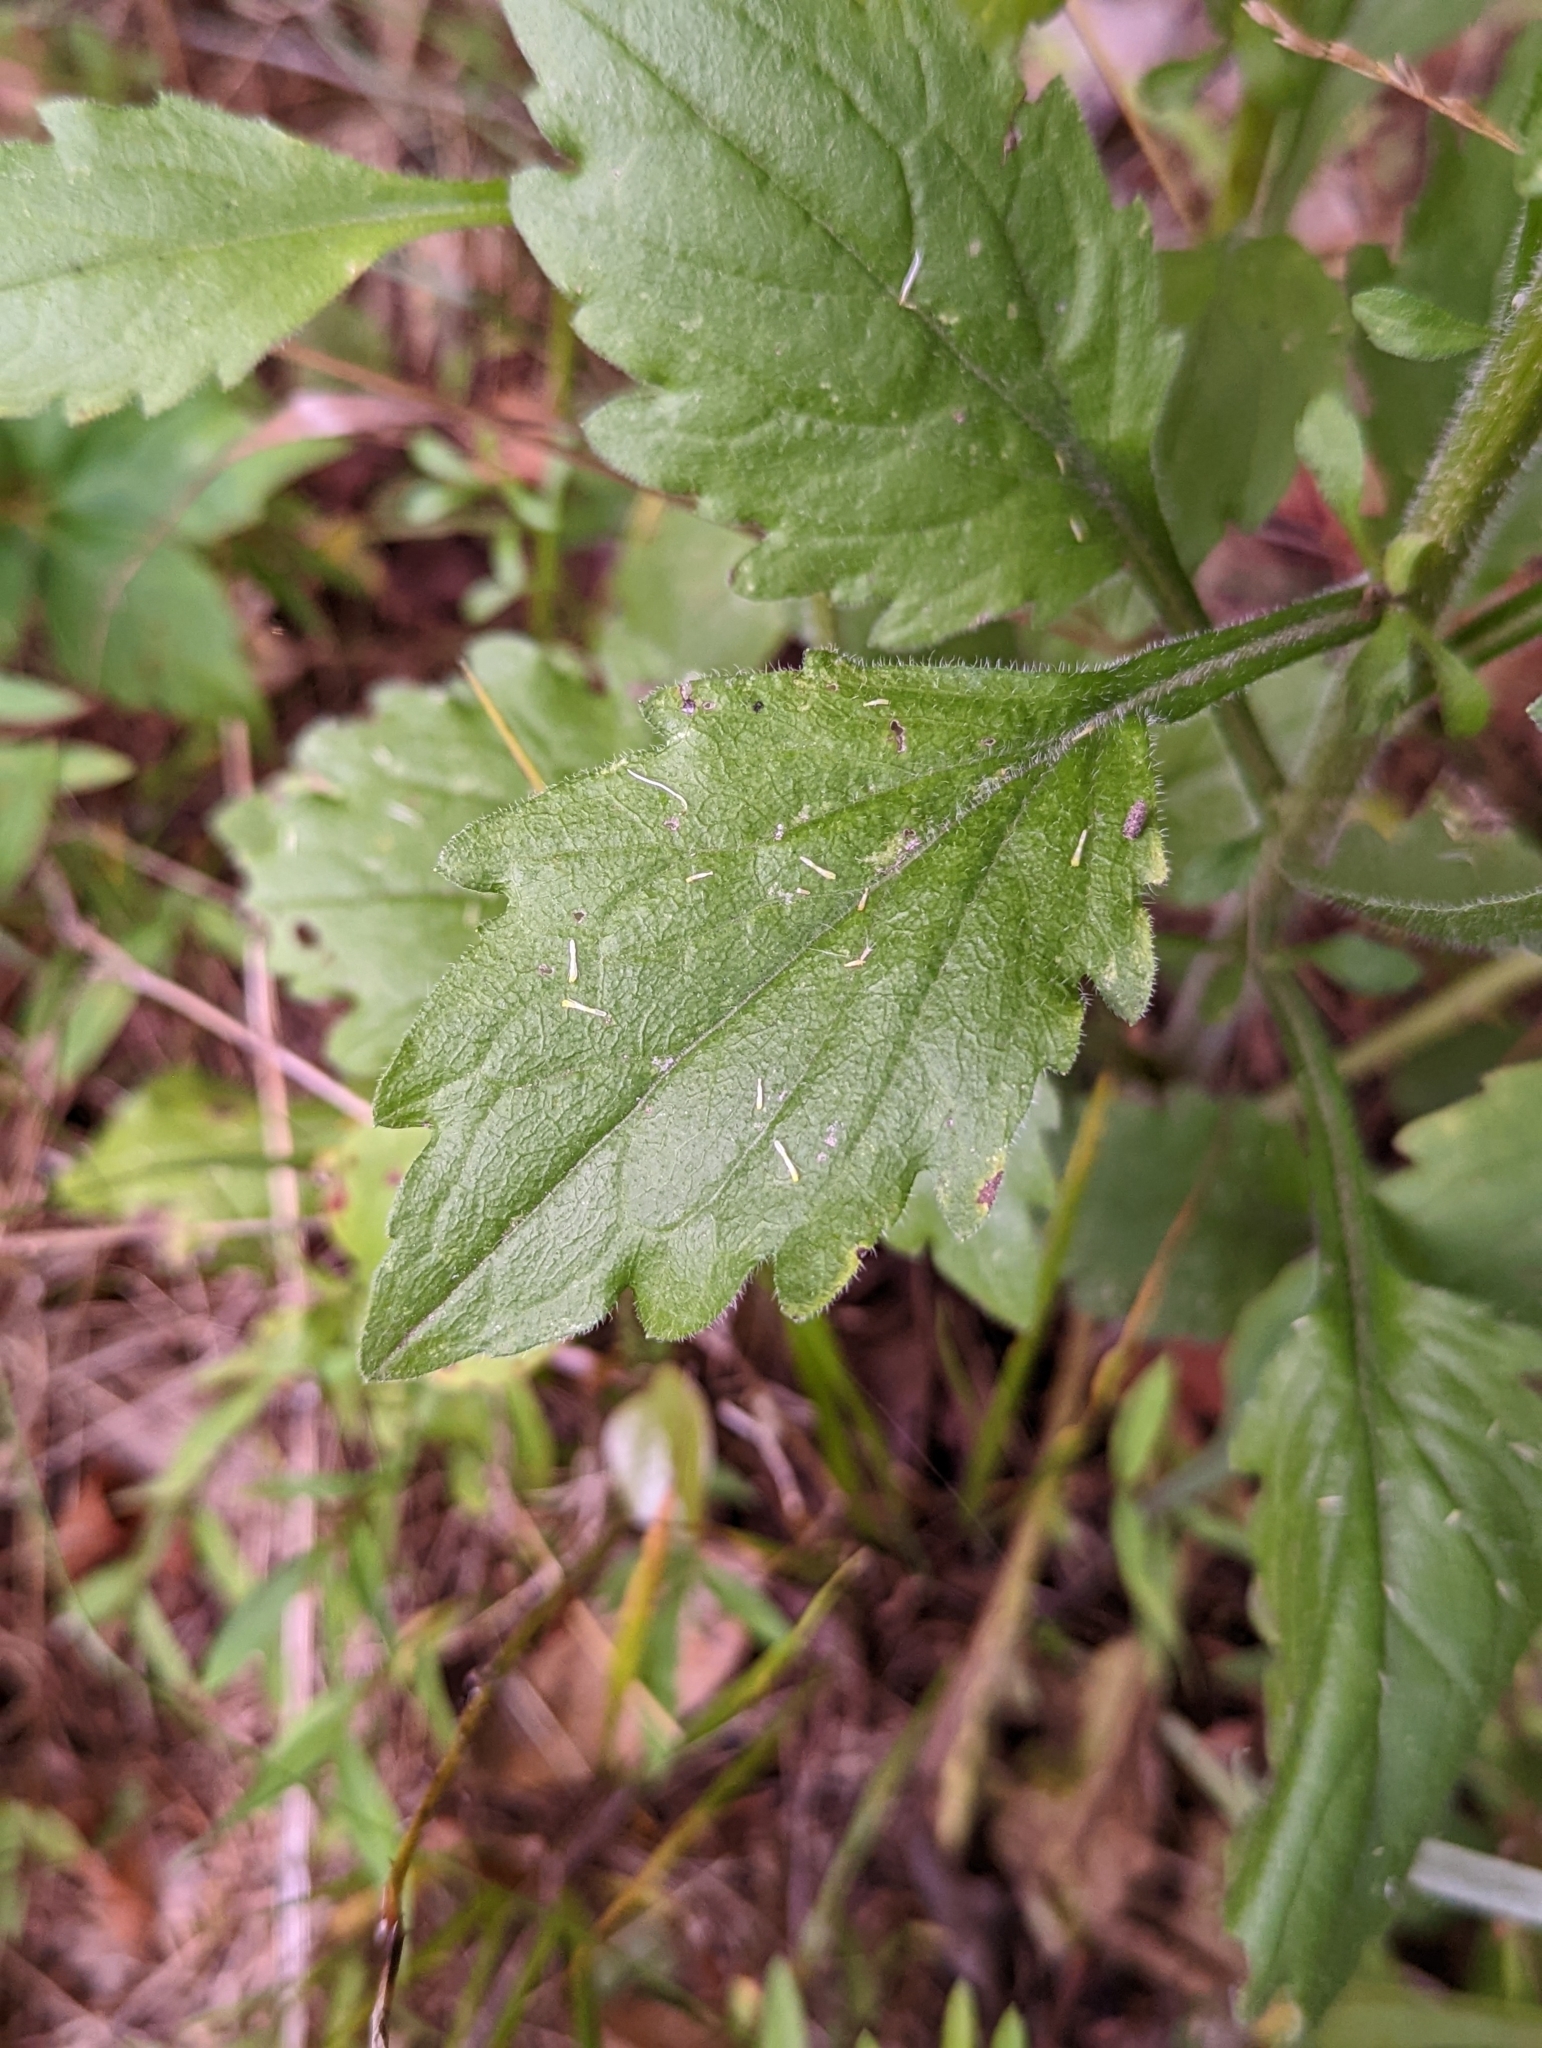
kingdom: Plantae
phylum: Tracheophyta
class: Magnoliopsida
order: Asterales
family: Asteraceae
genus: Erigeron
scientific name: Erigeron annuus
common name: Tall fleabane
